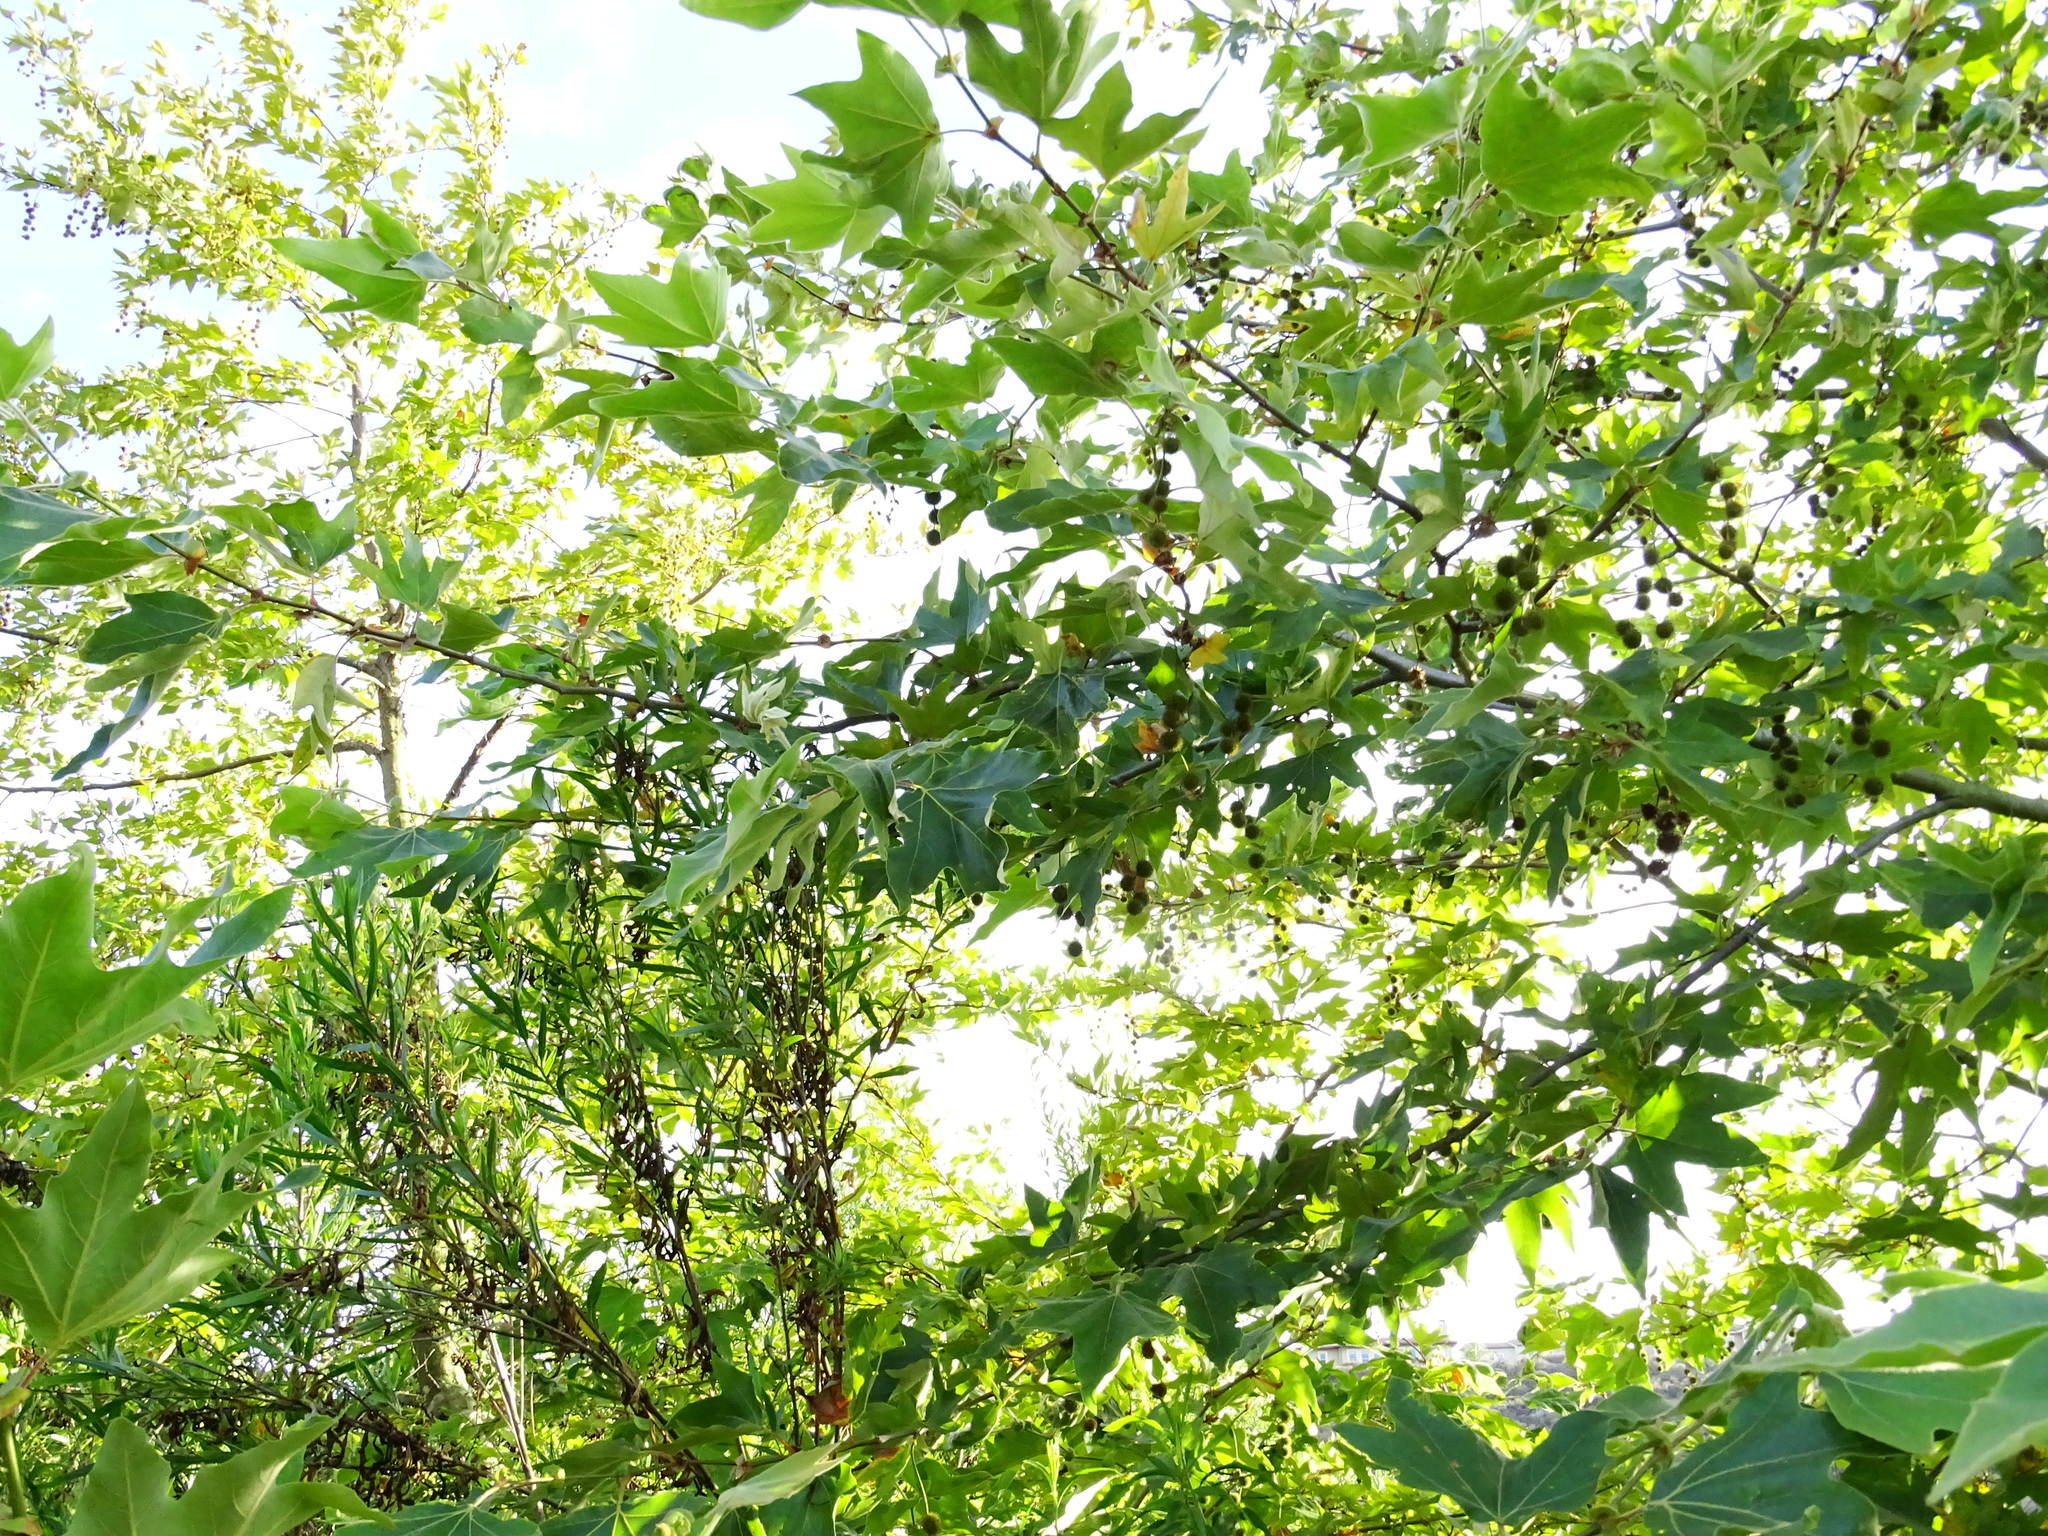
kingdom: Plantae
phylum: Tracheophyta
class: Magnoliopsida
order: Proteales
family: Platanaceae
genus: Platanus
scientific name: Platanus racemosa
